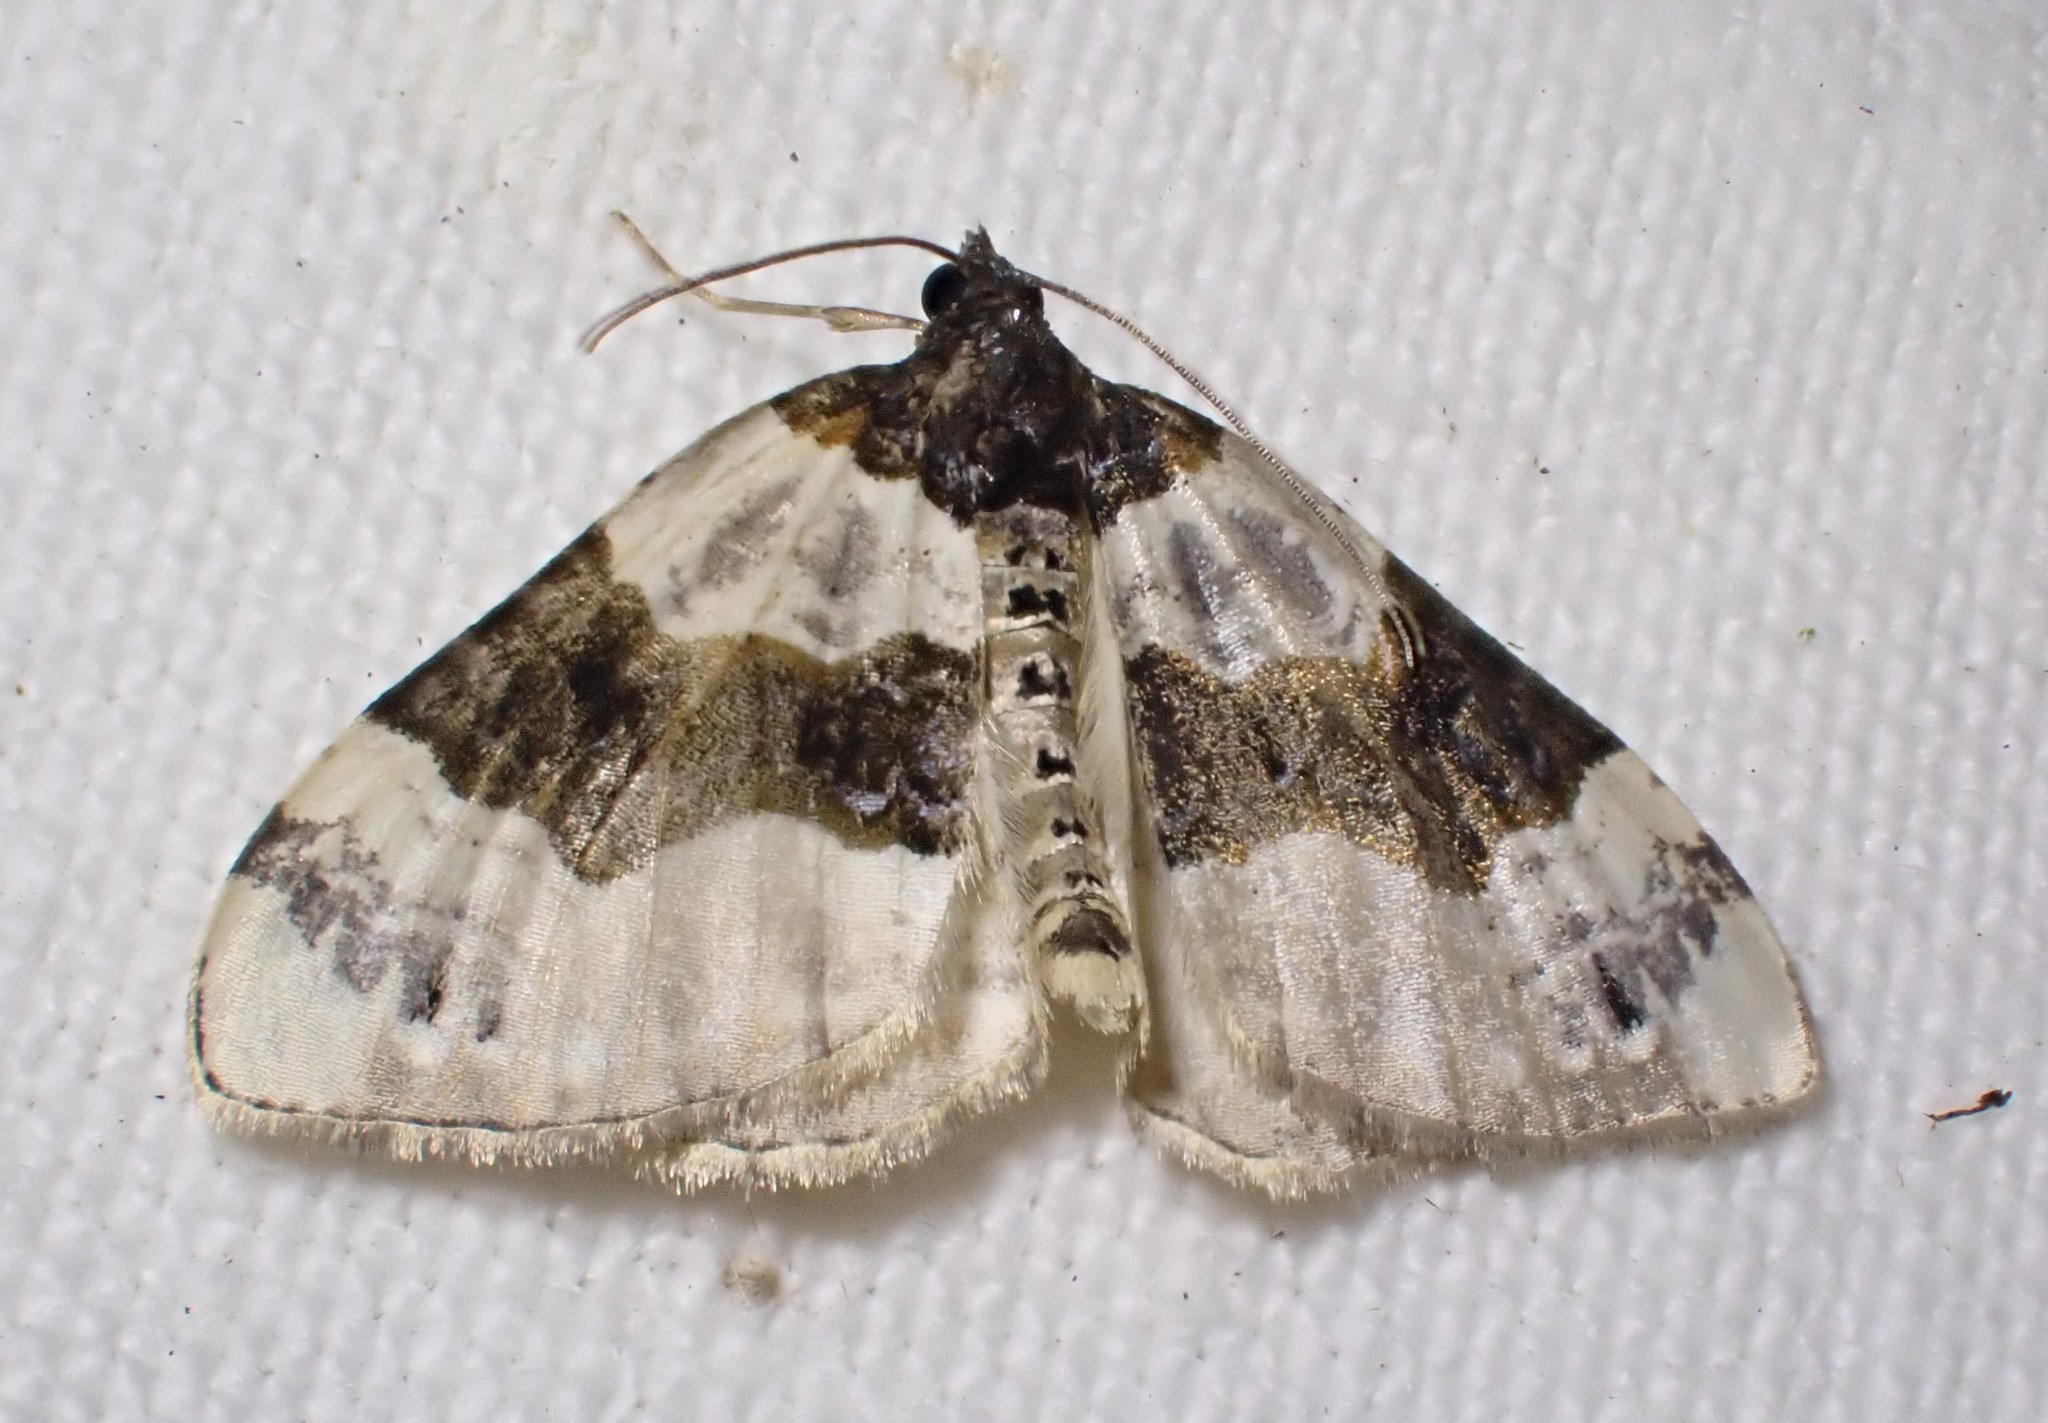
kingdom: Animalia
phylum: Arthropoda
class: Insecta
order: Lepidoptera
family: Geometridae
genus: Cosmorhoe
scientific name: Cosmorhoe ocellata
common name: Purple bar
